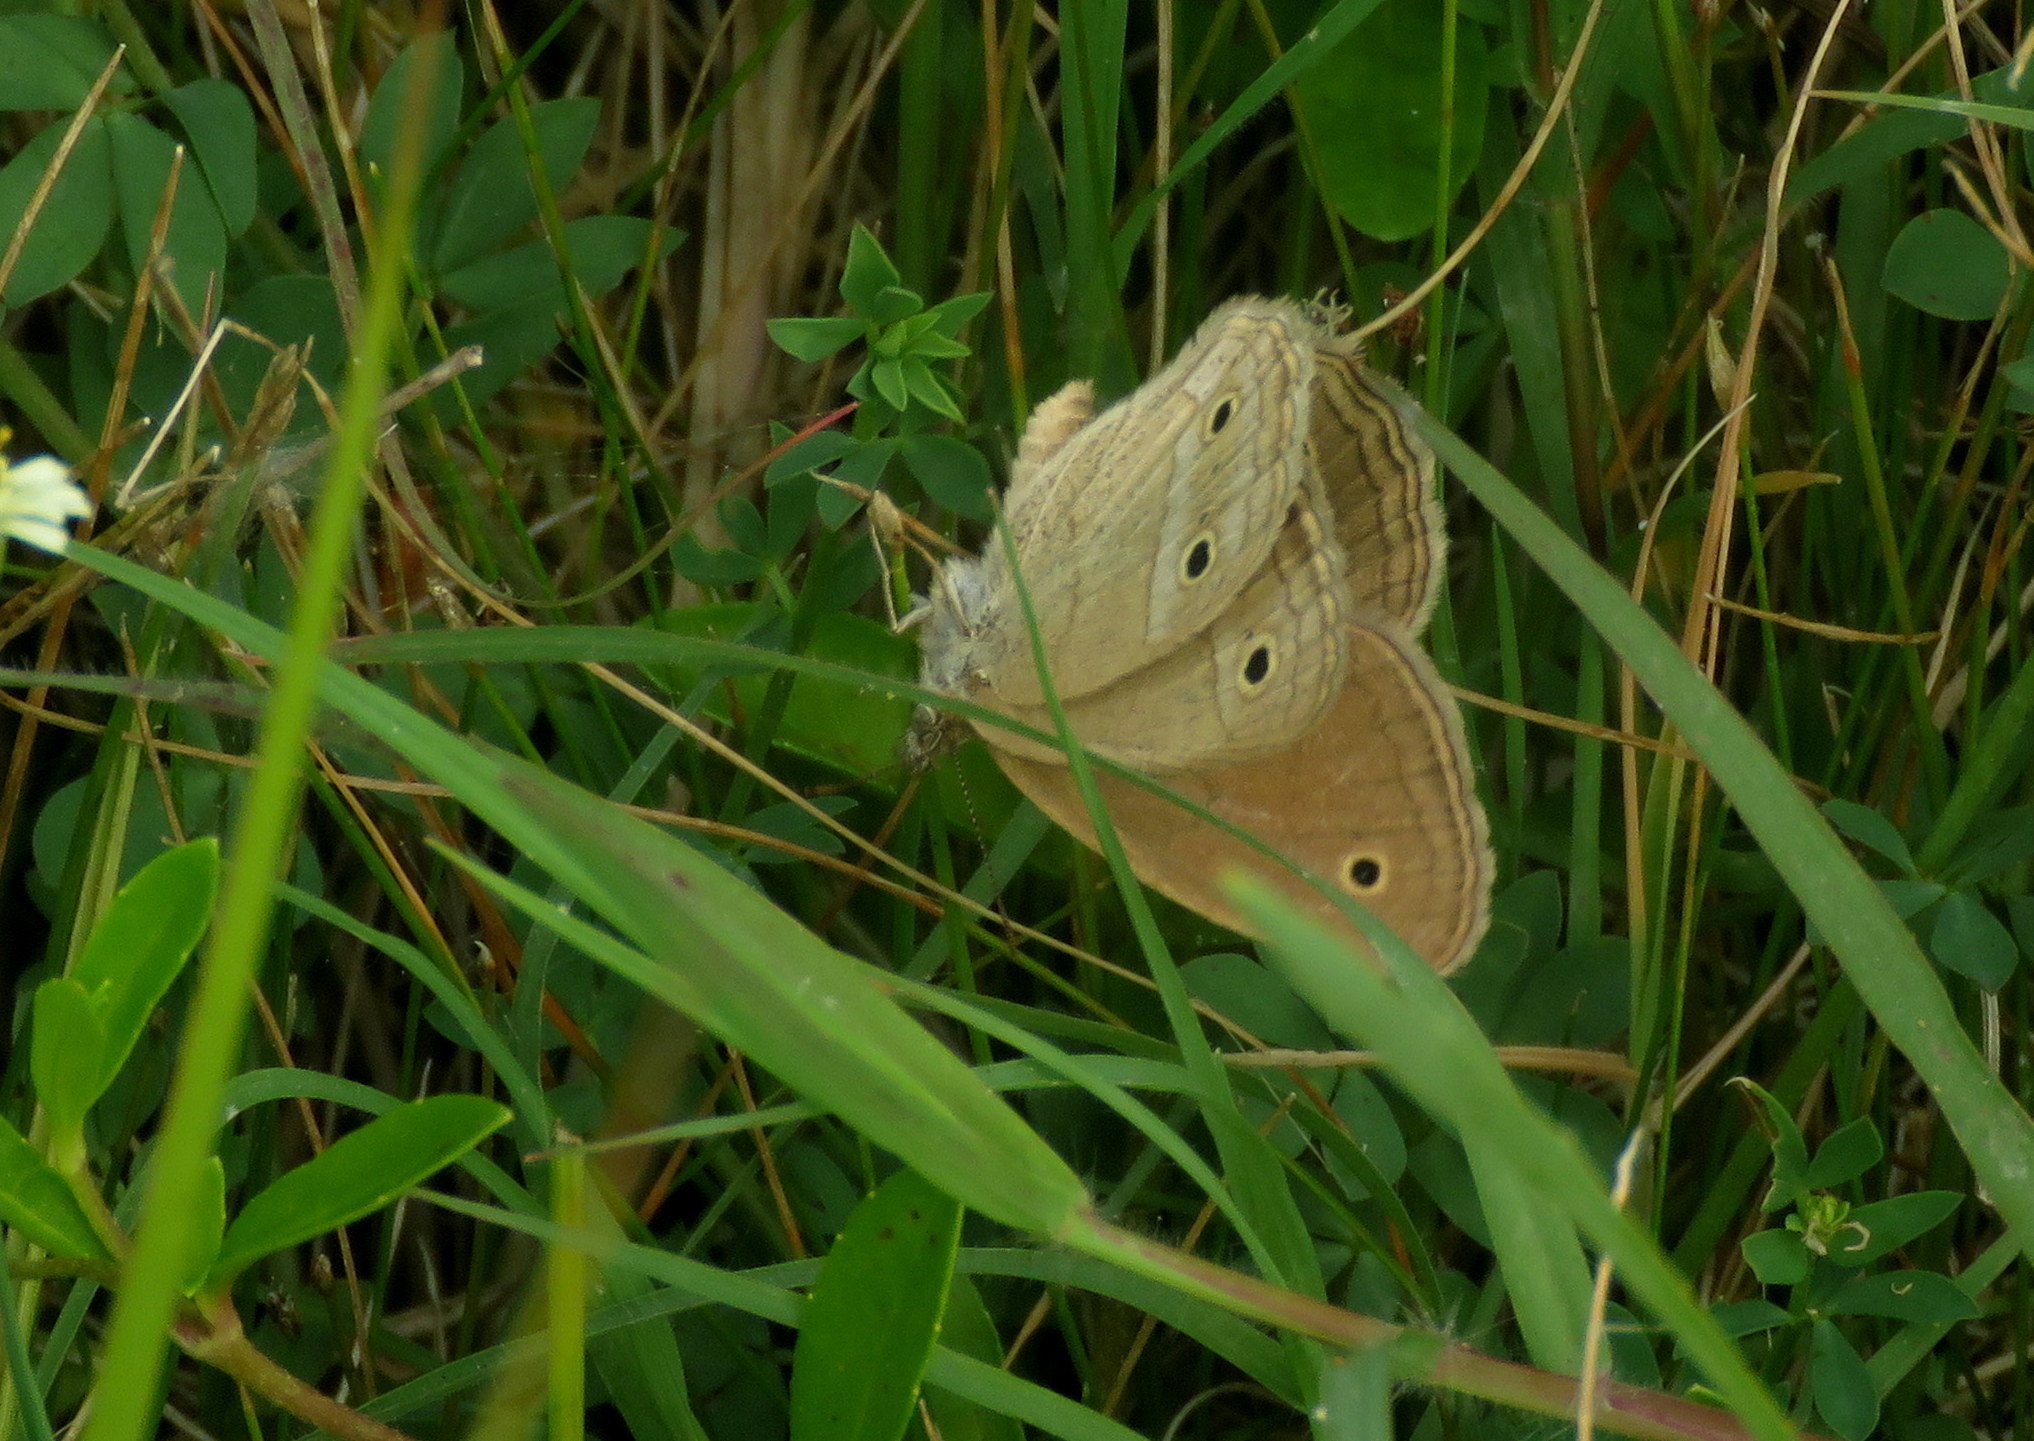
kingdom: Animalia
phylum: Arthropoda
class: Insecta
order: Lepidoptera
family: Nymphalidae
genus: Stegosatyrus
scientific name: Stegosatyrus periphas
